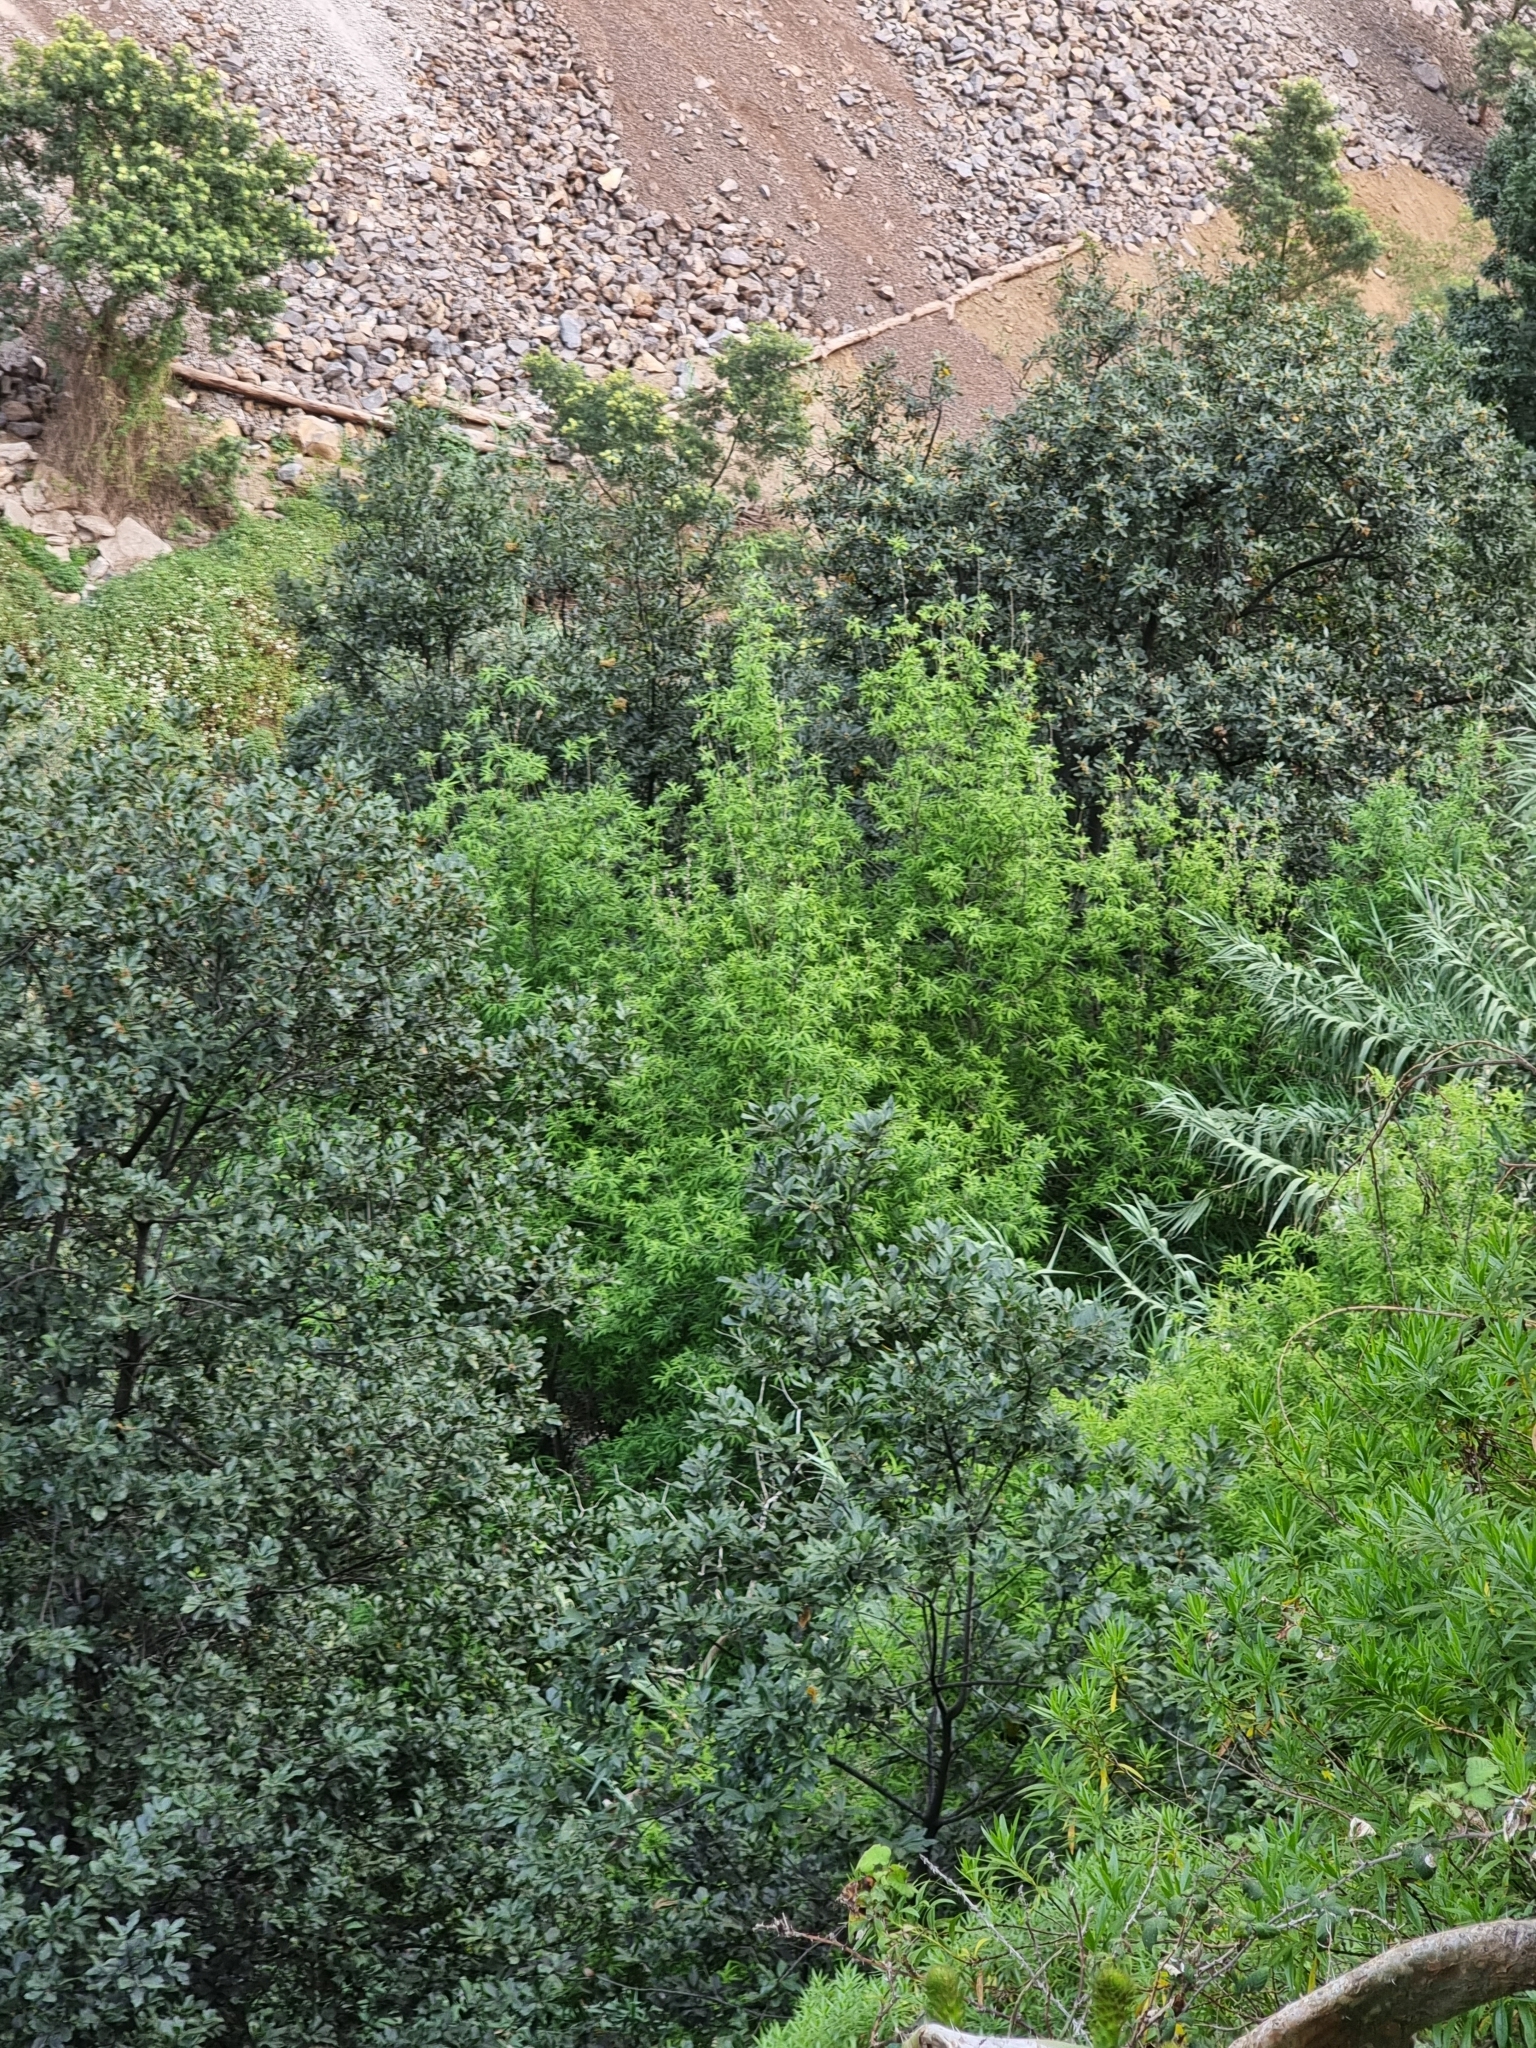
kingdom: Plantae
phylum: Tracheophyta
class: Magnoliopsida
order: Malpighiales
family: Salicaceae
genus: Salix
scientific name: Salix canariensis
